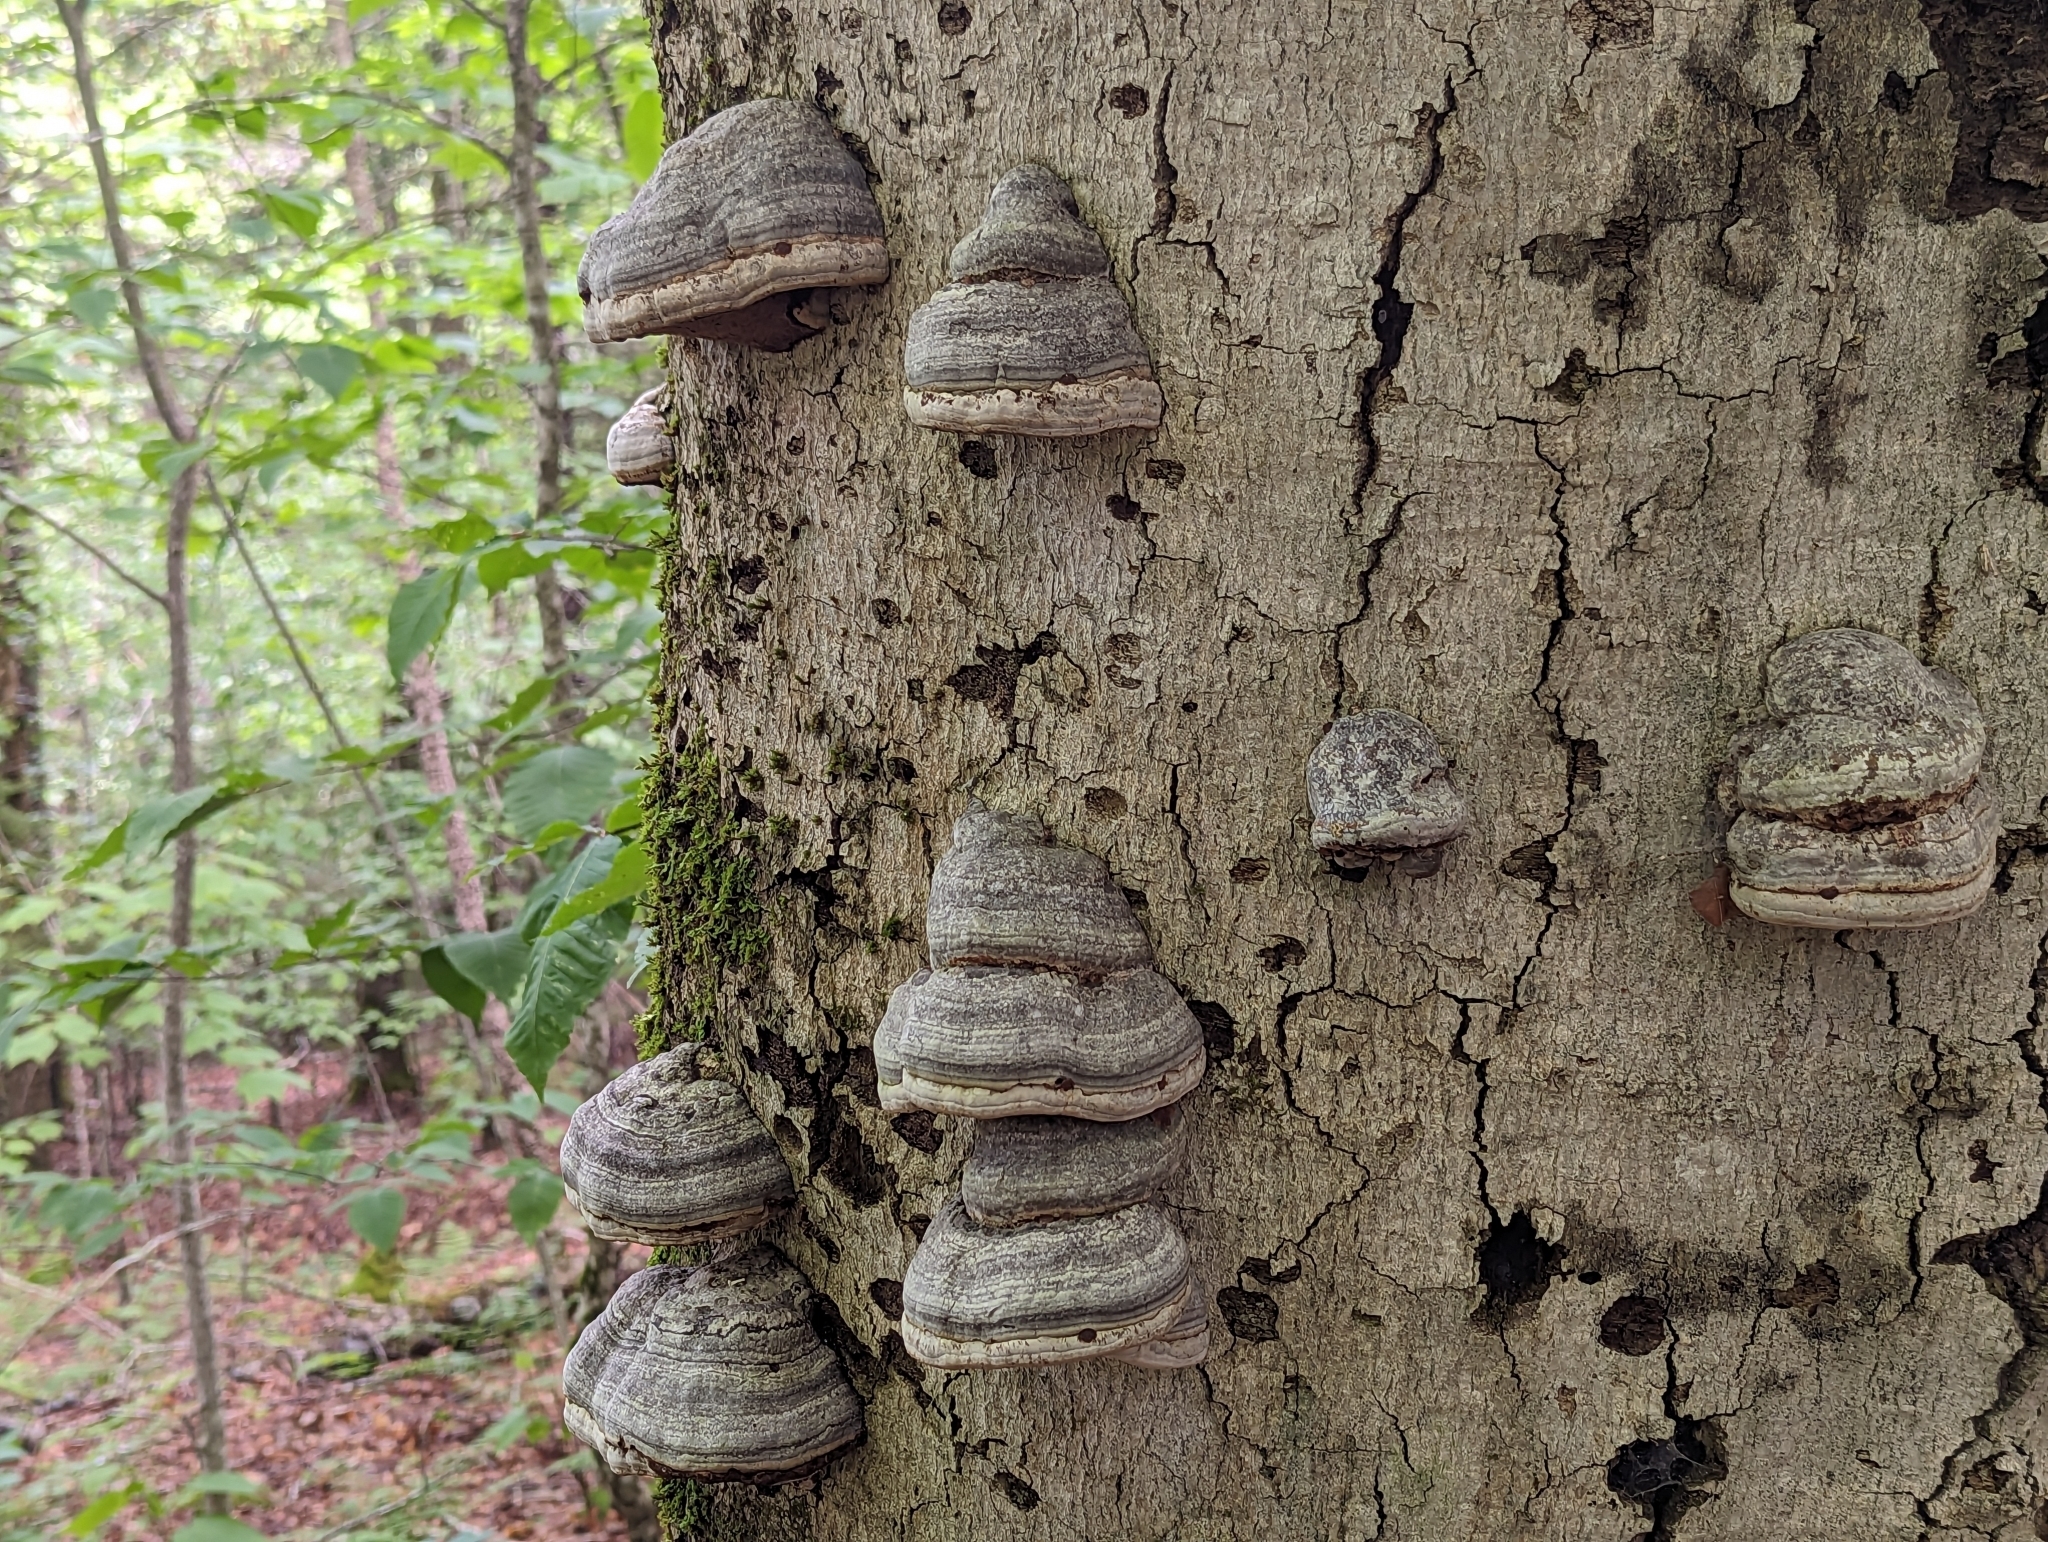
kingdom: Plantae
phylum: Tracheophyta
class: Magnoliopsida
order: Fagales
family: Fagaceae
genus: Fagus
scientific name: Fagus grandifolia
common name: American beech
